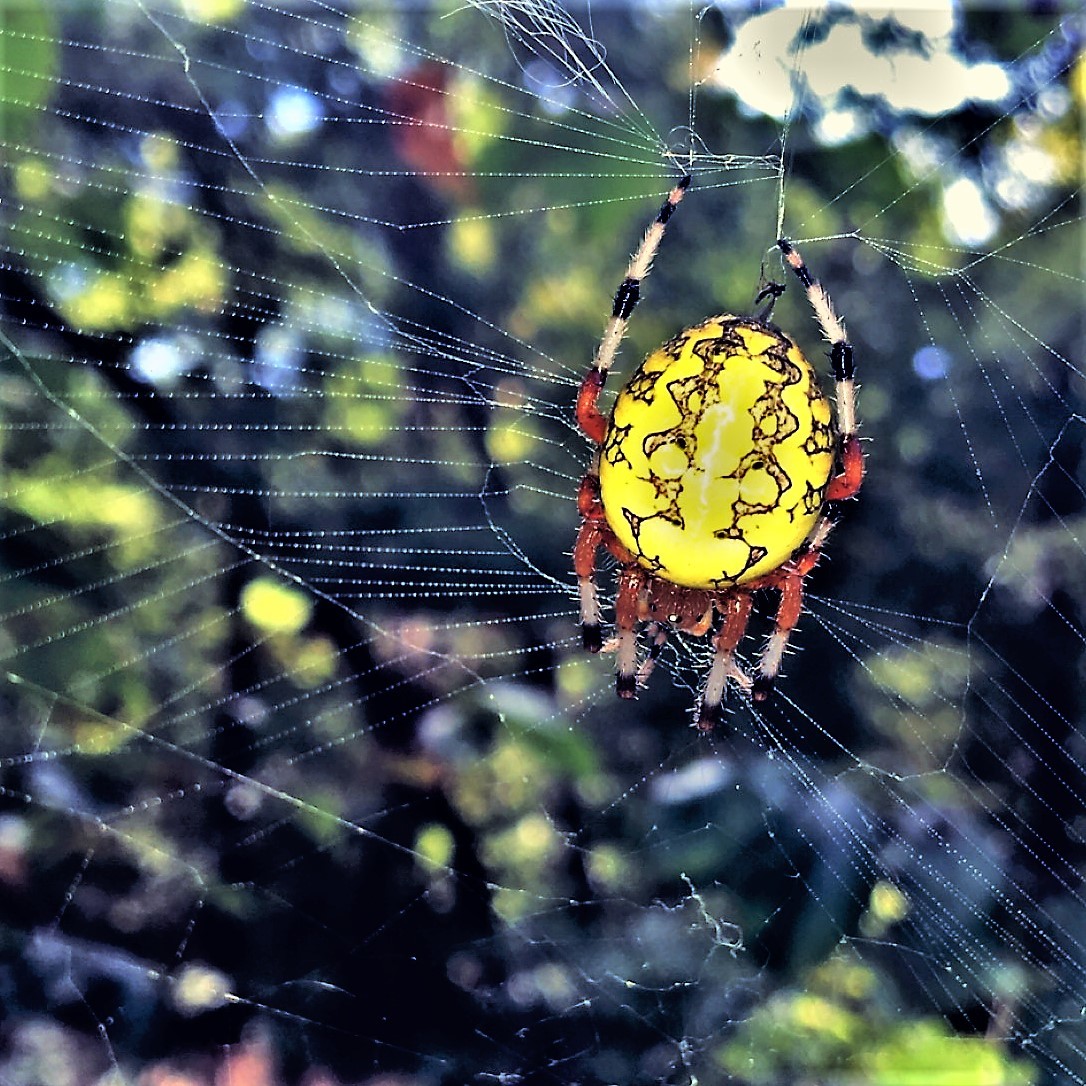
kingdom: Animalia
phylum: Arthropoda
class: Arachnida
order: Araneae
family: Araneidae
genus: Araneus
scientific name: Araneus marmoreus
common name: Marbled orbweaver
